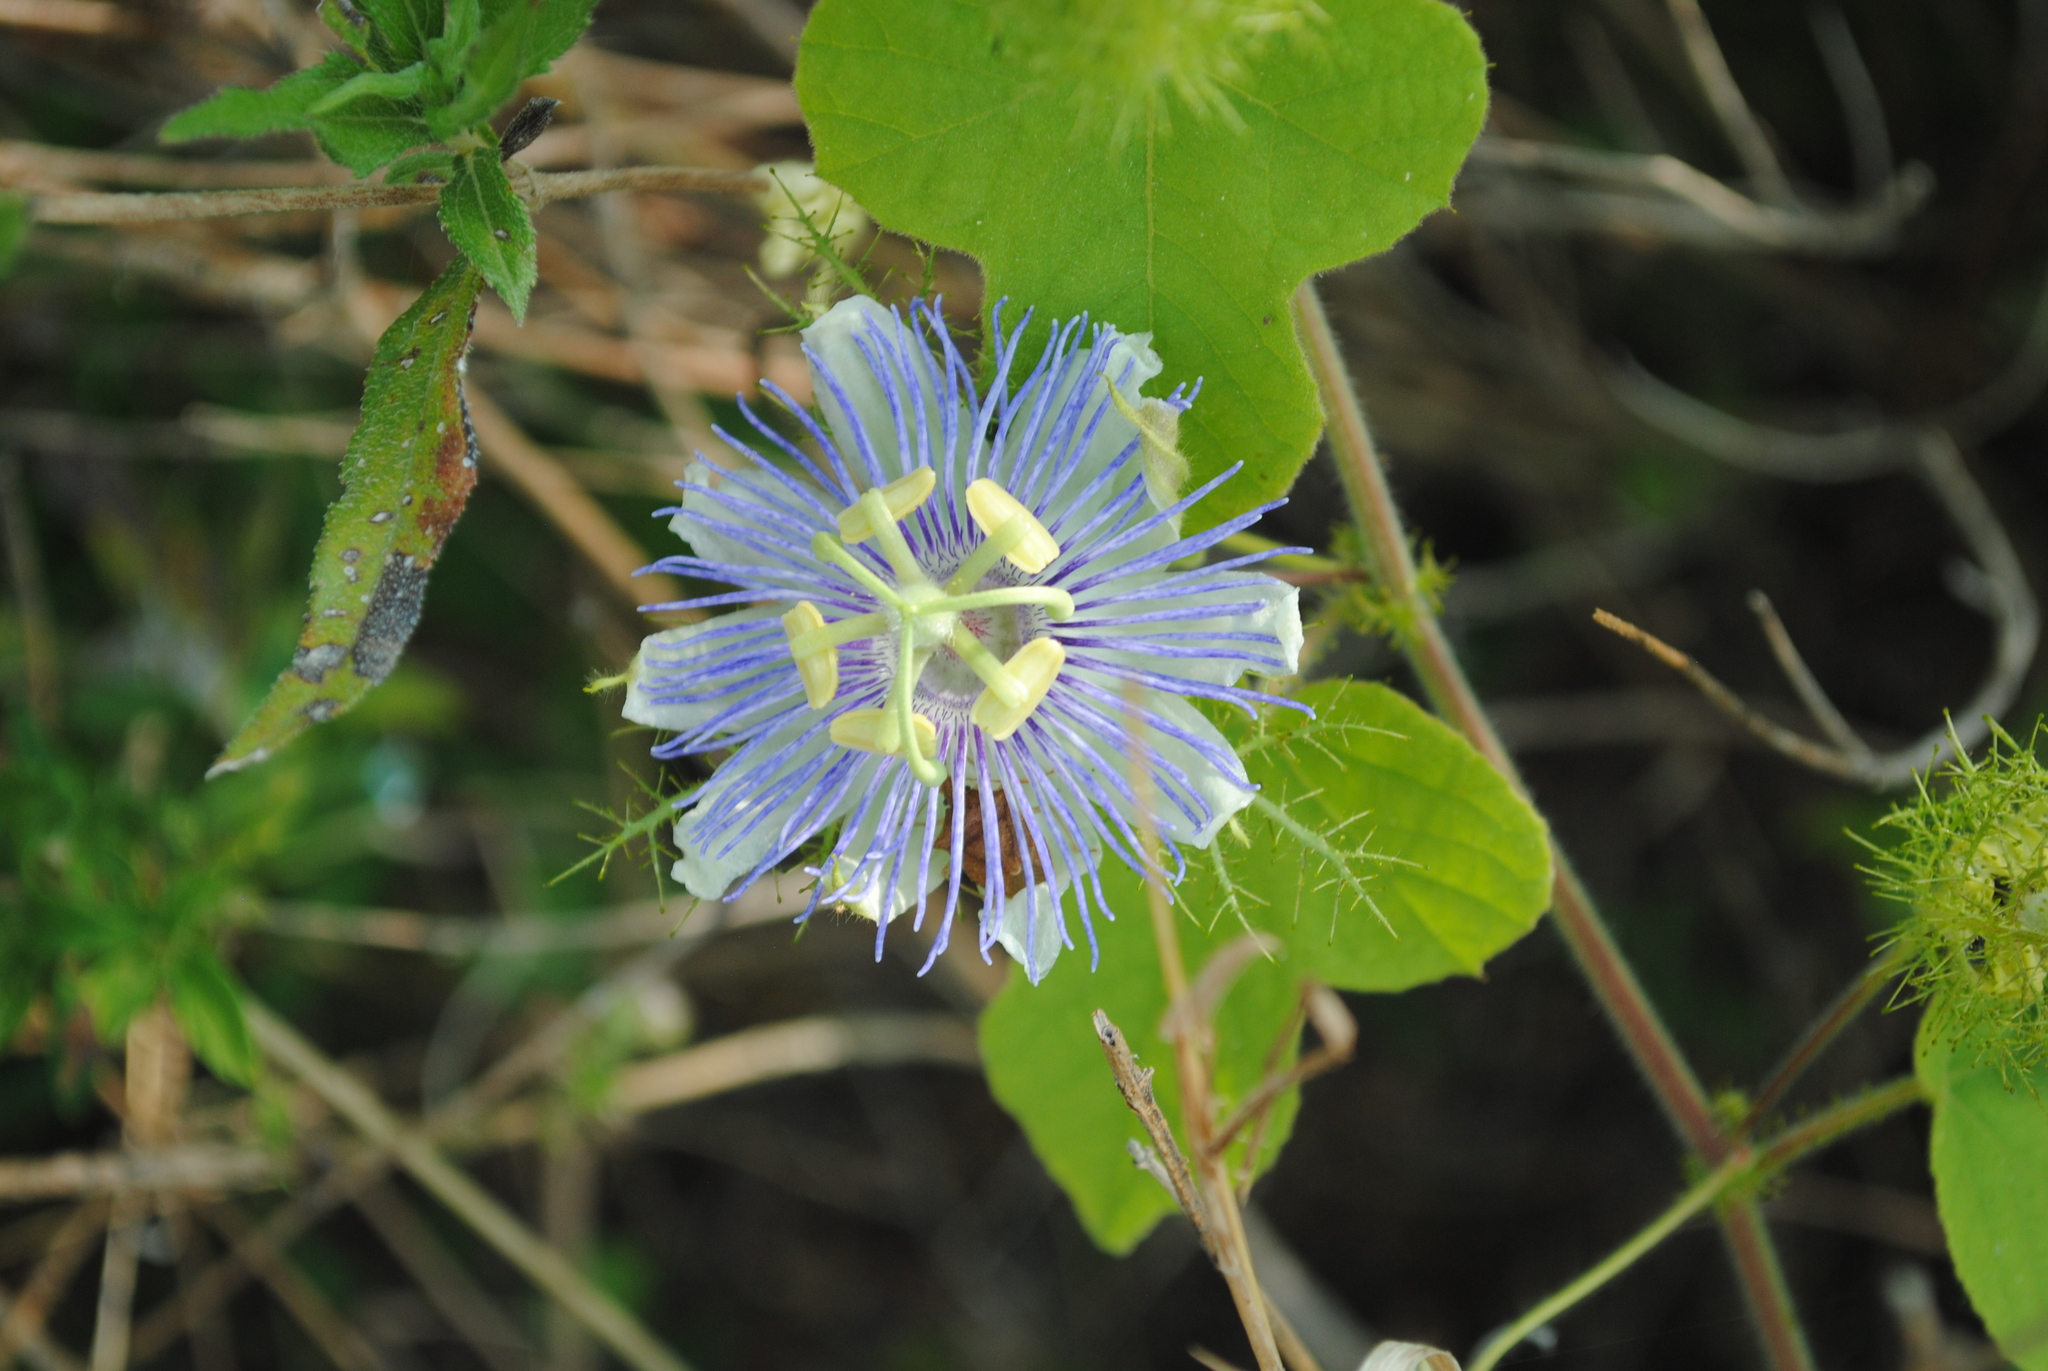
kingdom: Plantae
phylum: Tracheophyta
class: Magnoliopsida
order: Malpighiales
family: Passifloraceae
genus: Passiflora
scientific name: Passiflora foetida
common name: Fetid passionflower
